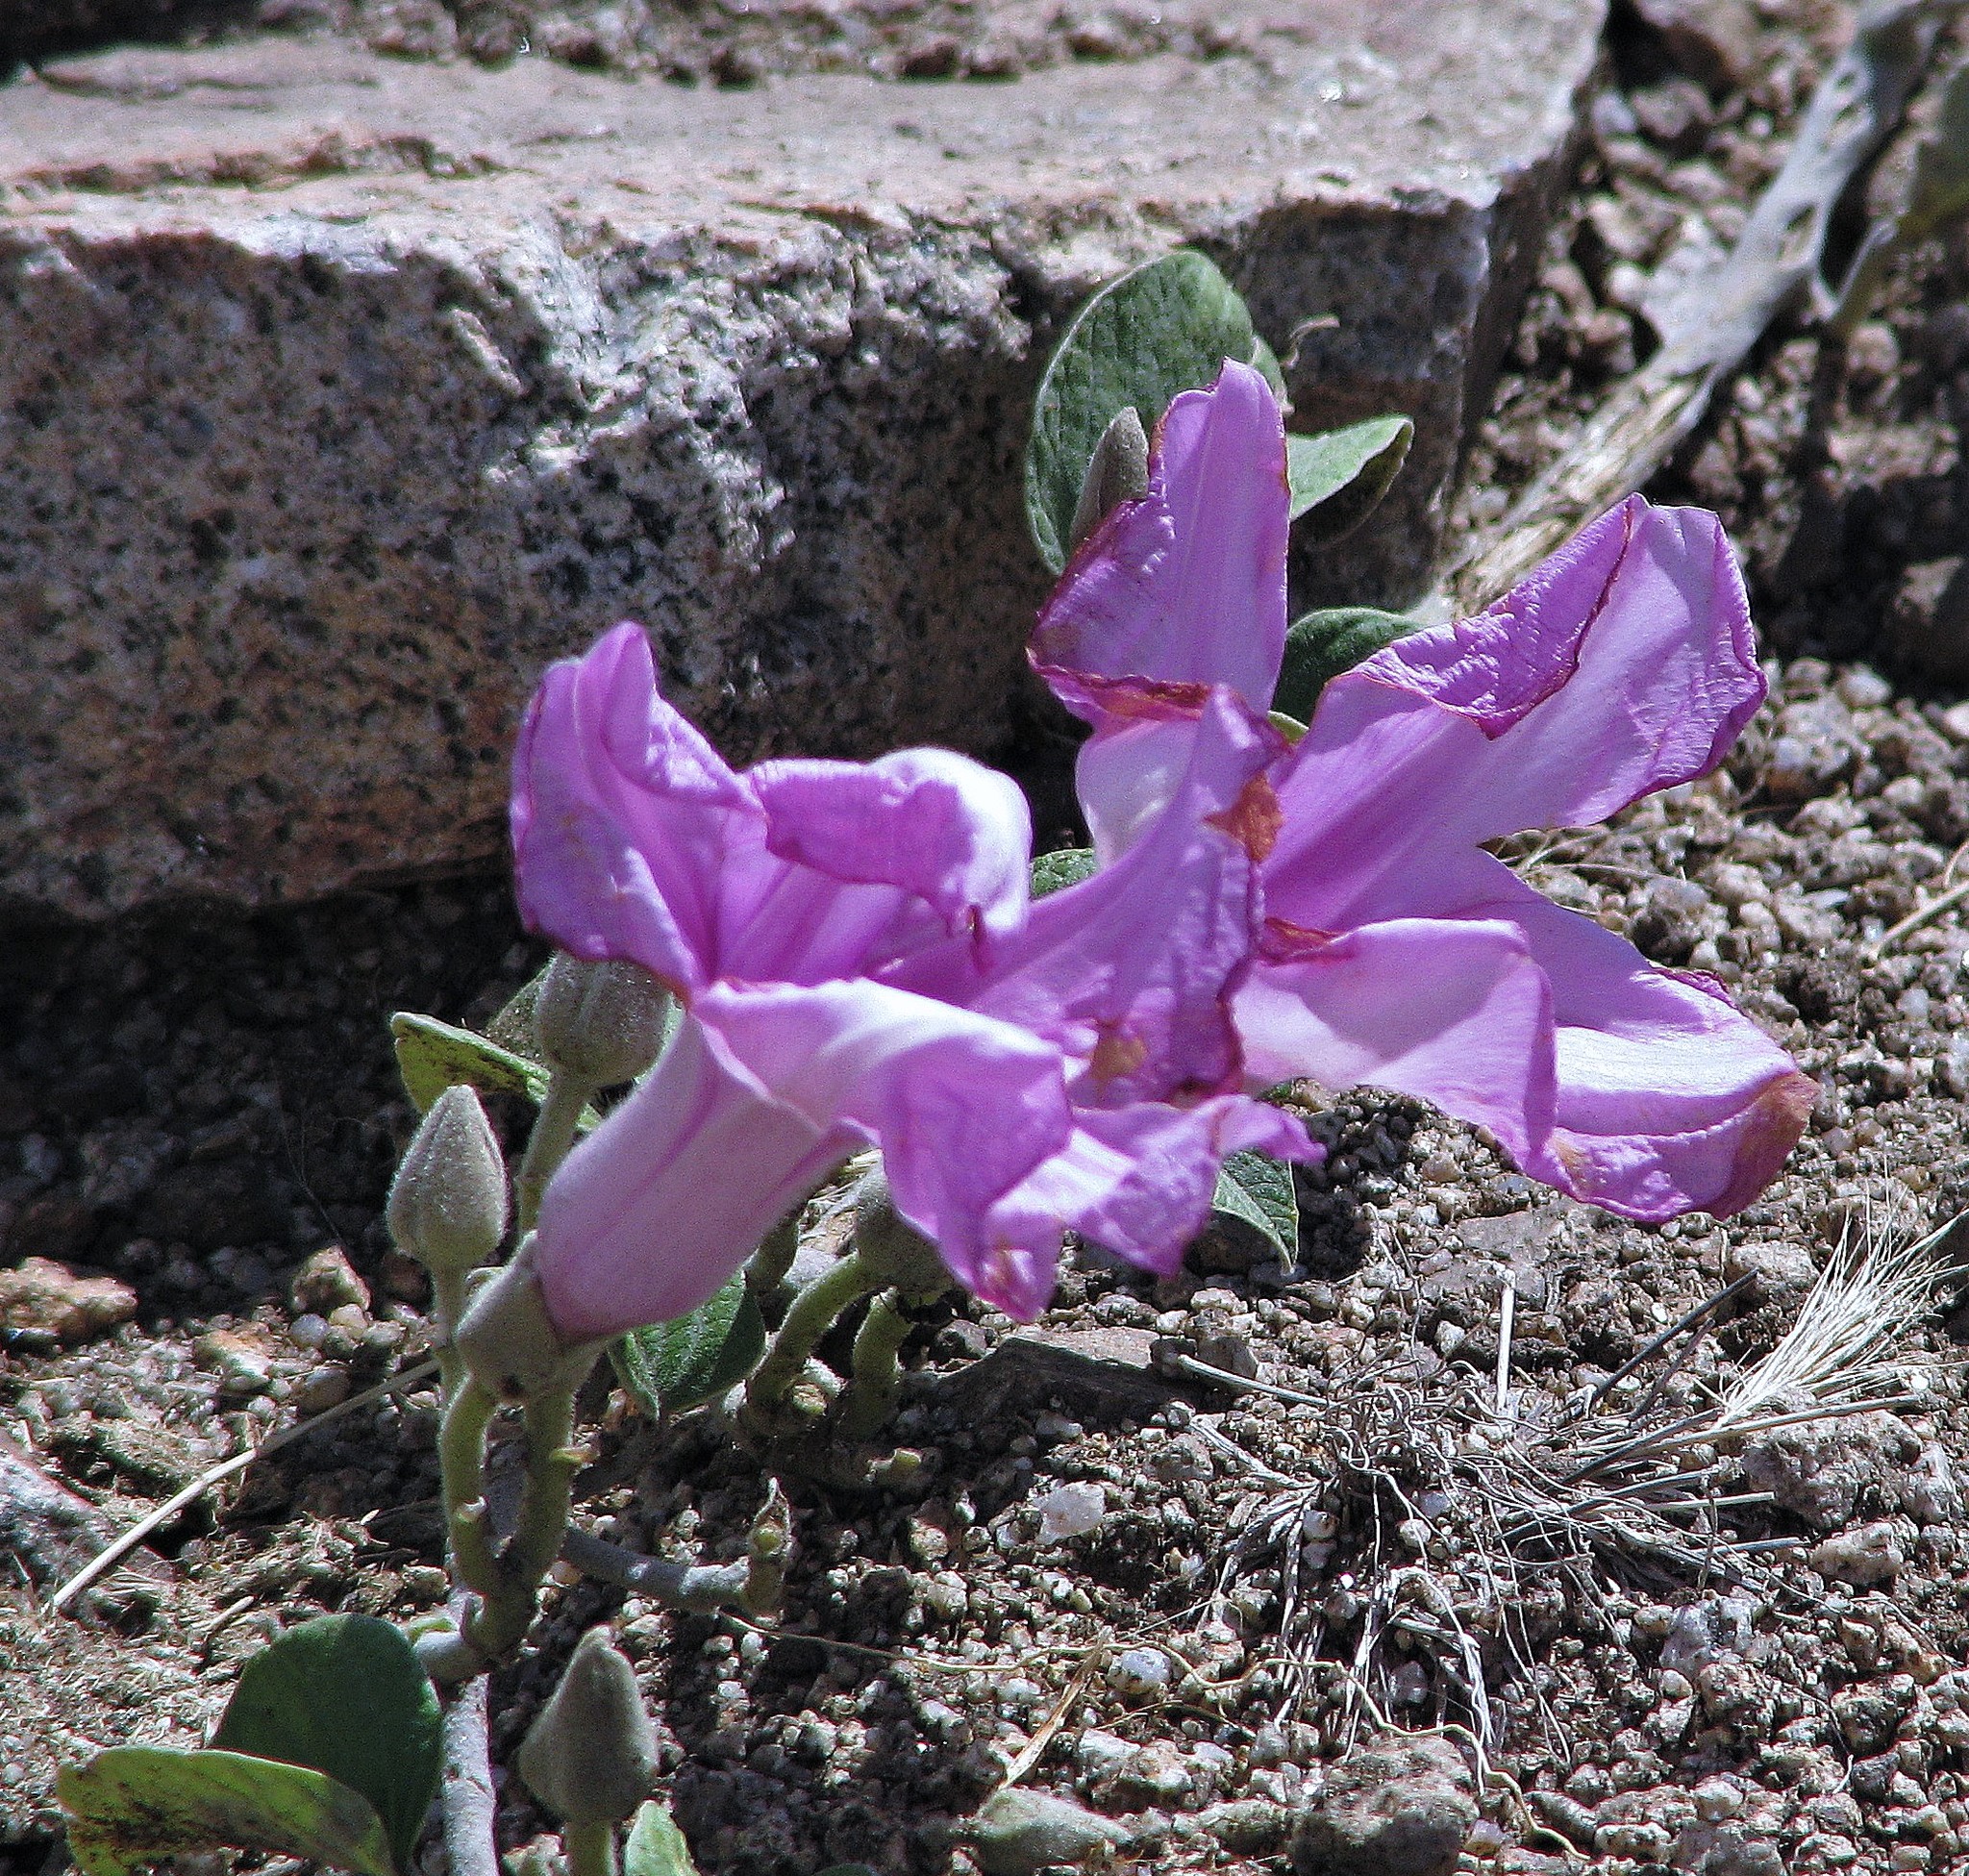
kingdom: Plantae
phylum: Tracheophyta
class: Magnoliopsida
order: Solanales
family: Convolvulaceae
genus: Ipomoea
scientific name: Ipomoea hieronymi
